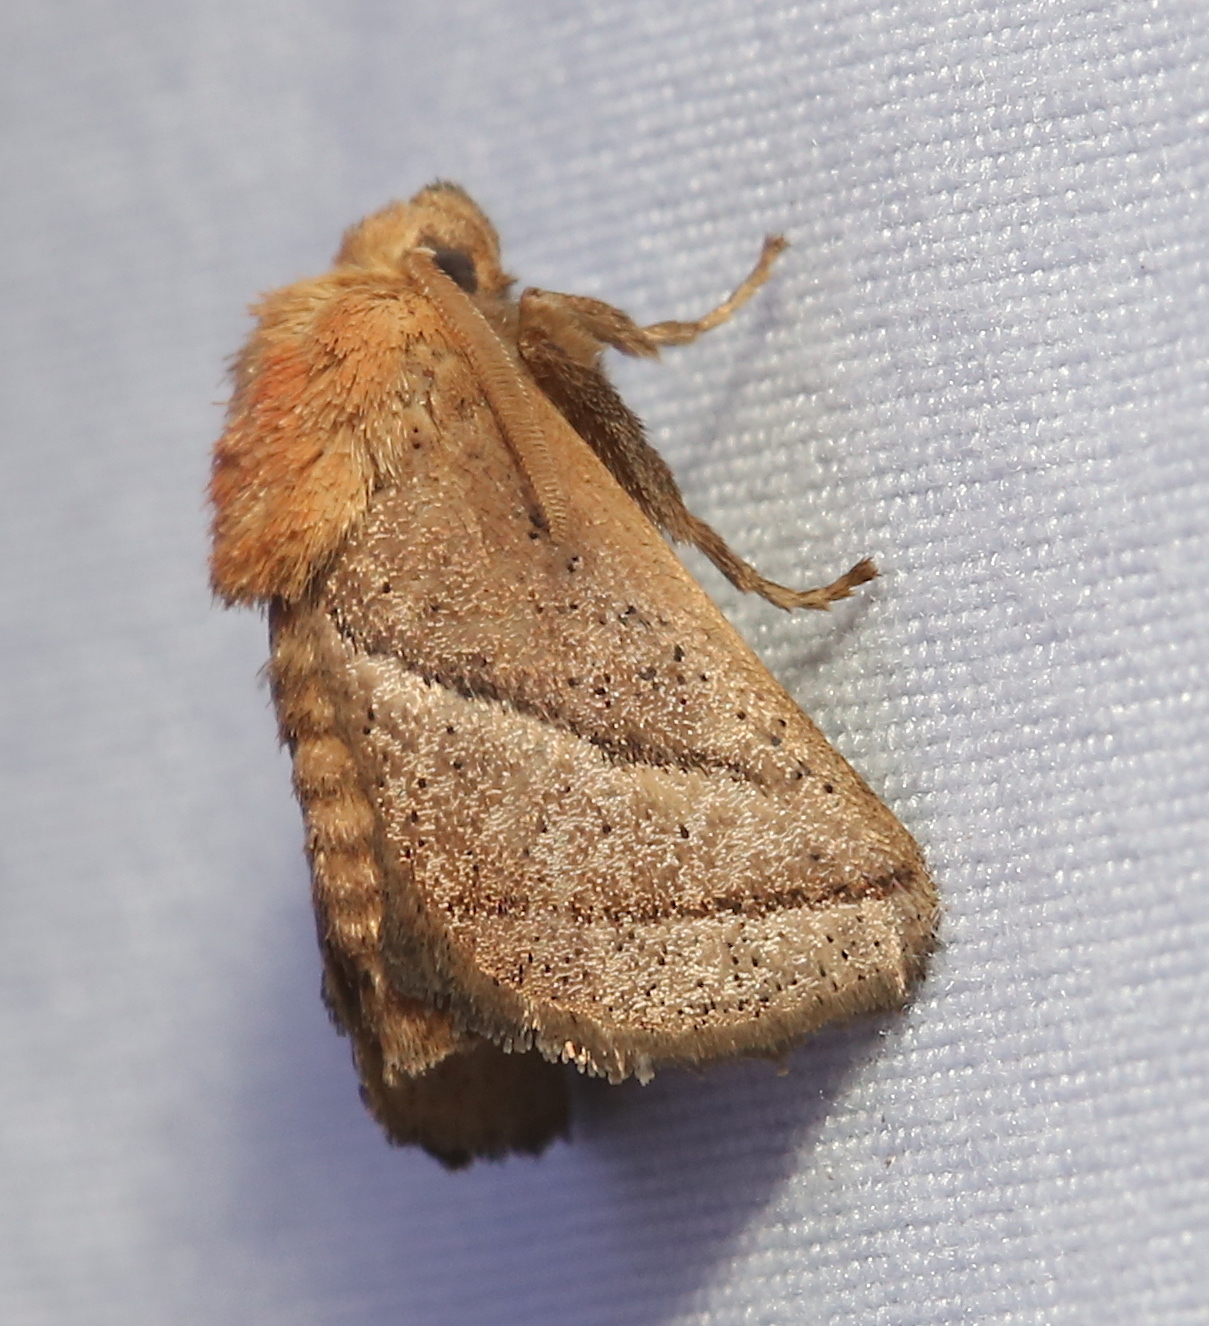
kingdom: Animalia
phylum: Arthropoda
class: Insecta
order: Lepidoptera
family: Limacodidae
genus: Natada
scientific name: Natada nasoni
